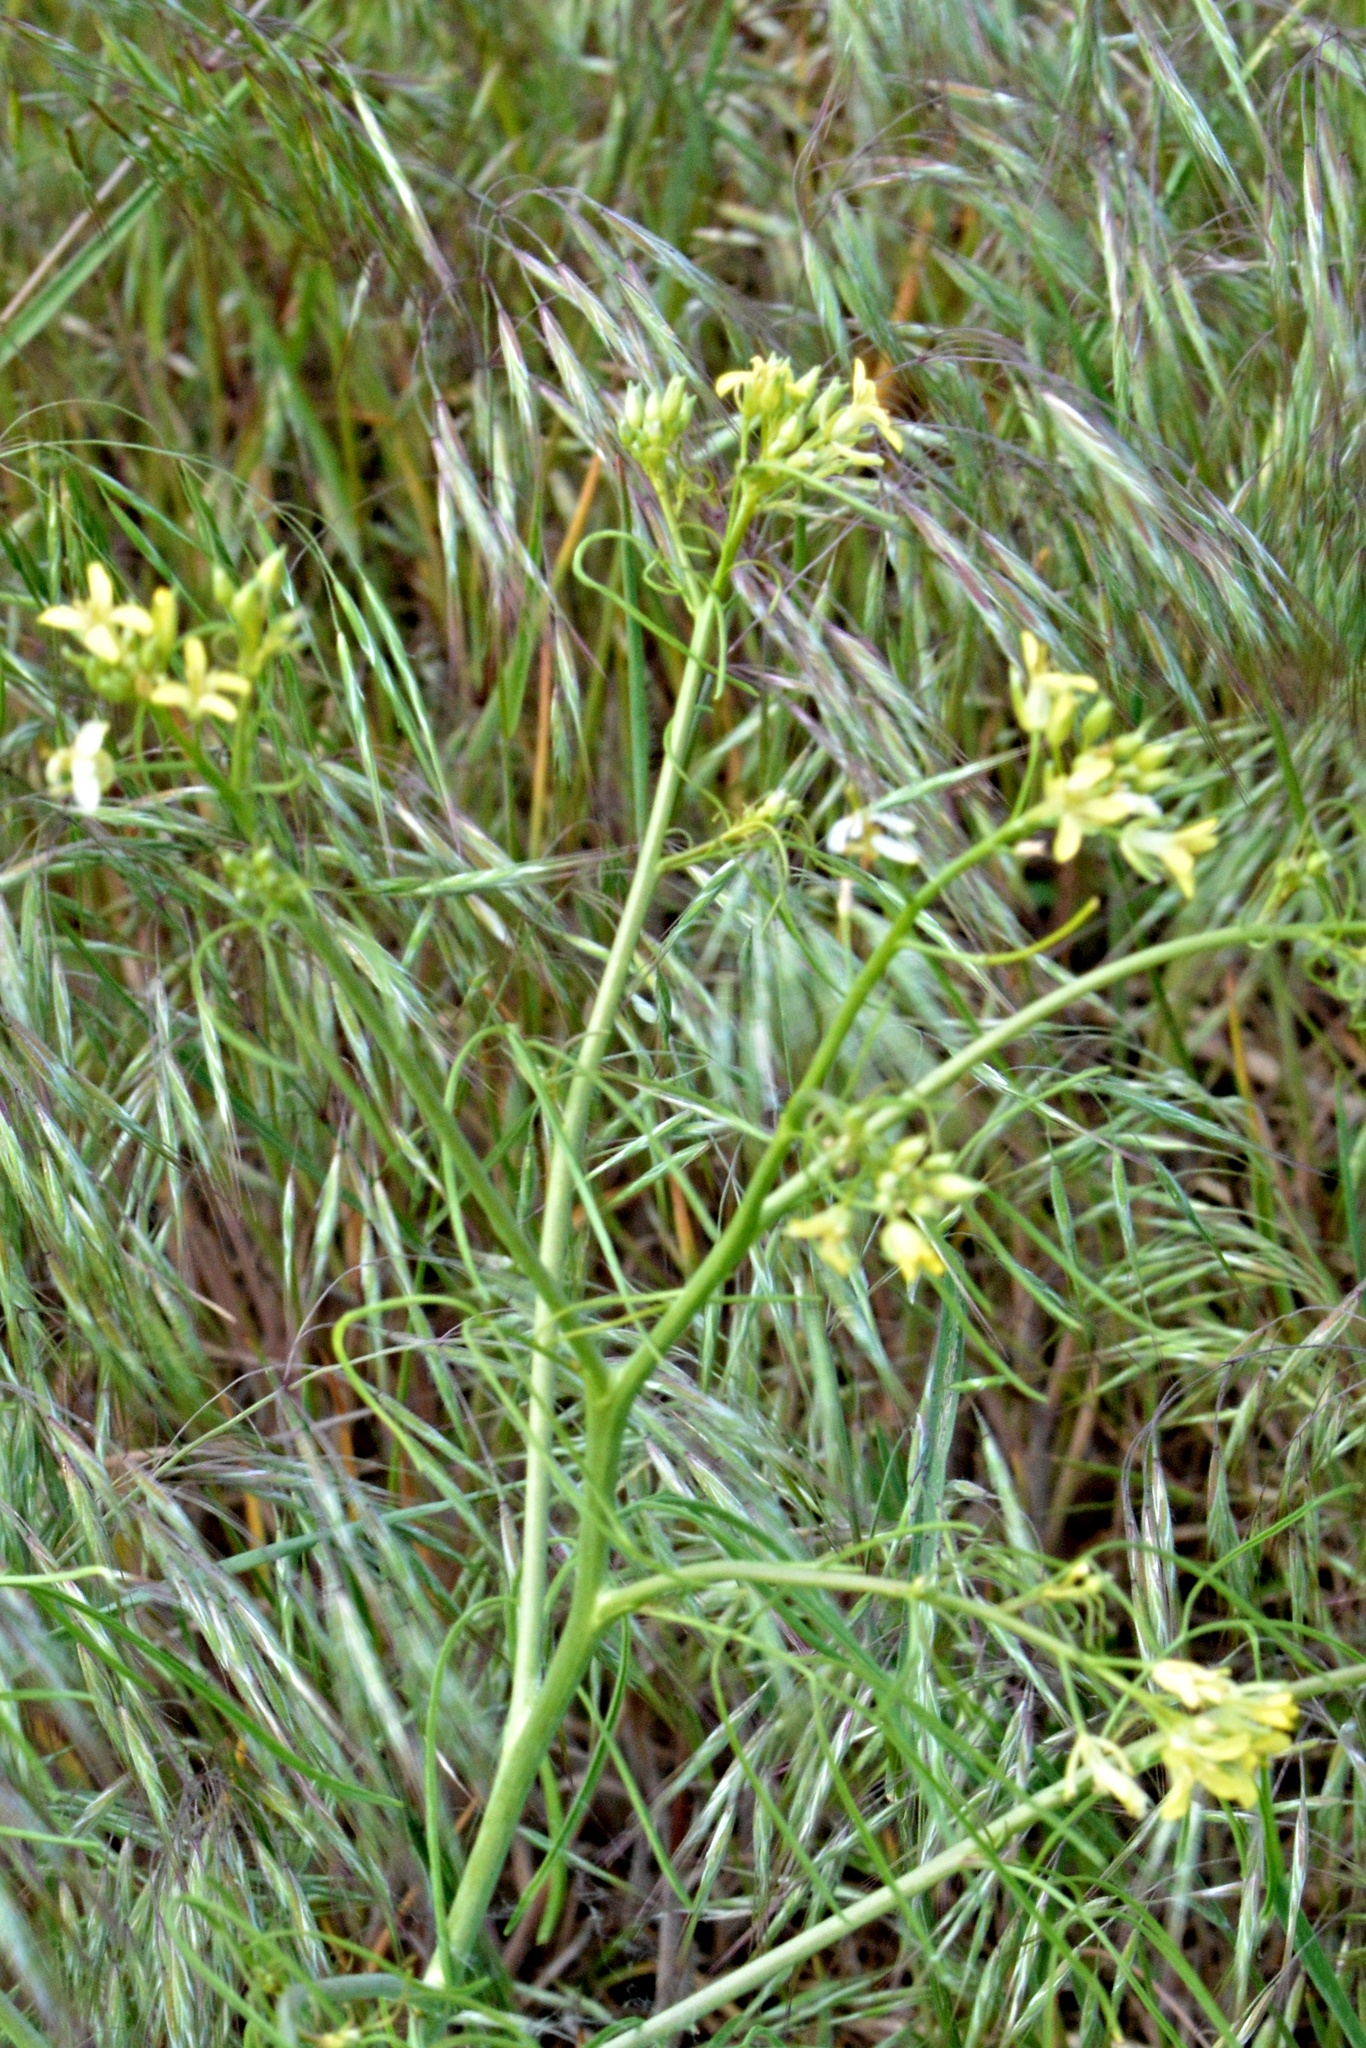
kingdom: Plantae
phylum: Tracheophyta
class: Magnoliopsida
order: Brassicales
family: Brassicaceae
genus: Sisymbrium
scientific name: Sisymbrium altissimum
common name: Tall rocket
